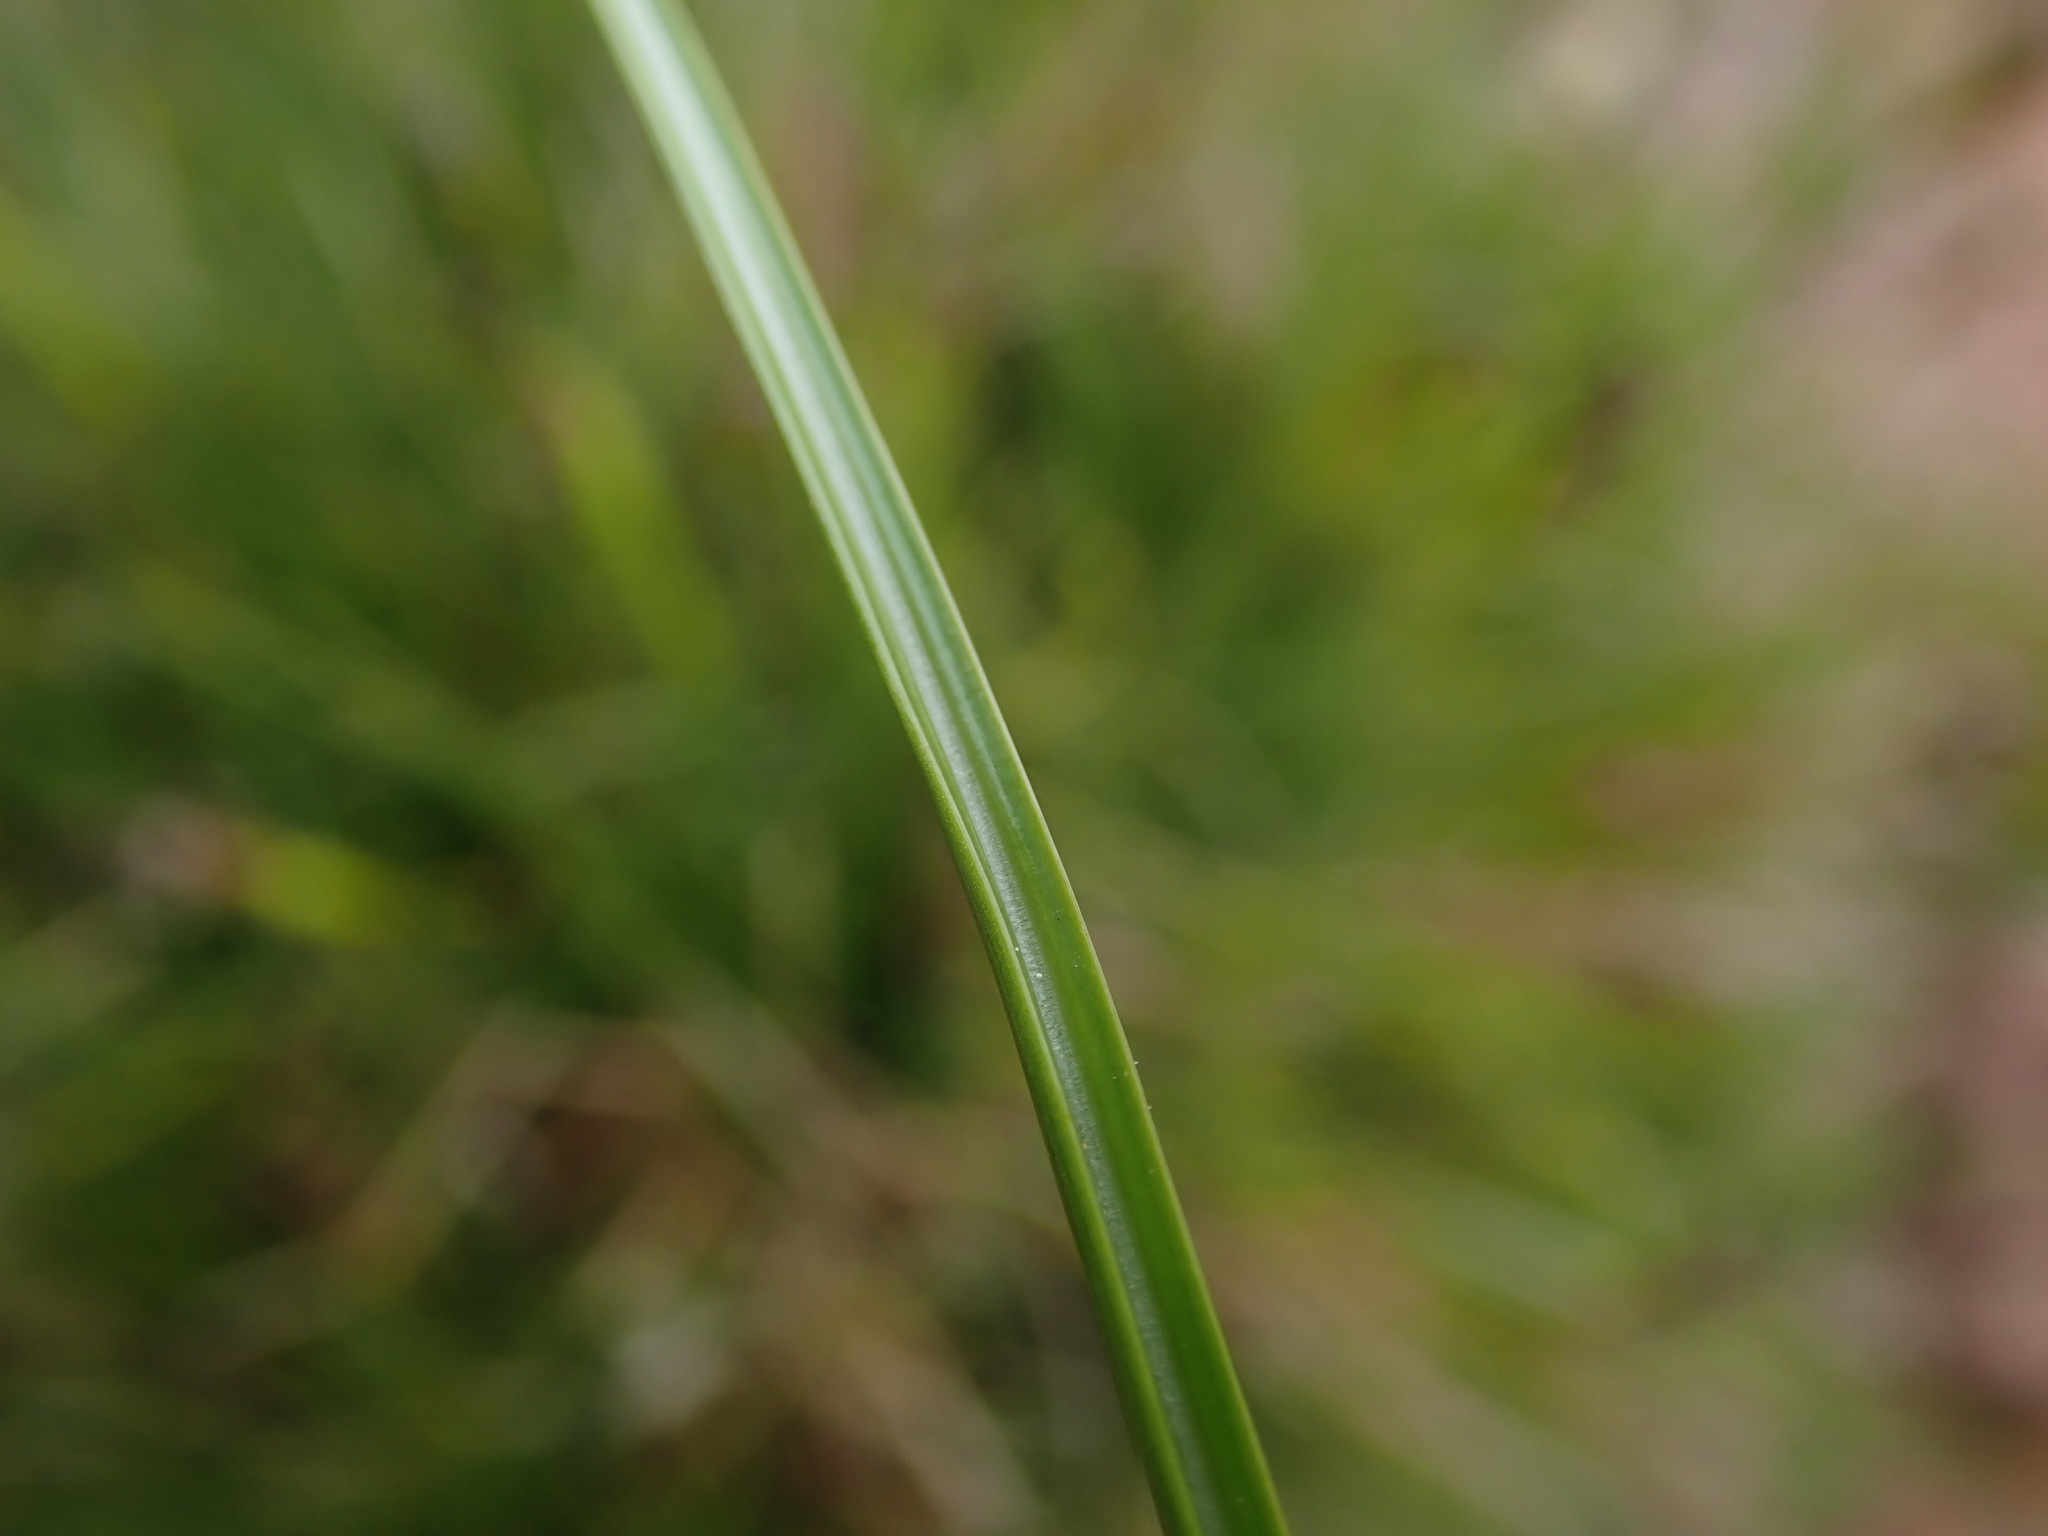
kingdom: Plantae
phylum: Tracheophyta
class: Liliopsida
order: Poales
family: Juncaceae
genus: Juncus
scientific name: Juncus squarrosus
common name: Heath rush
